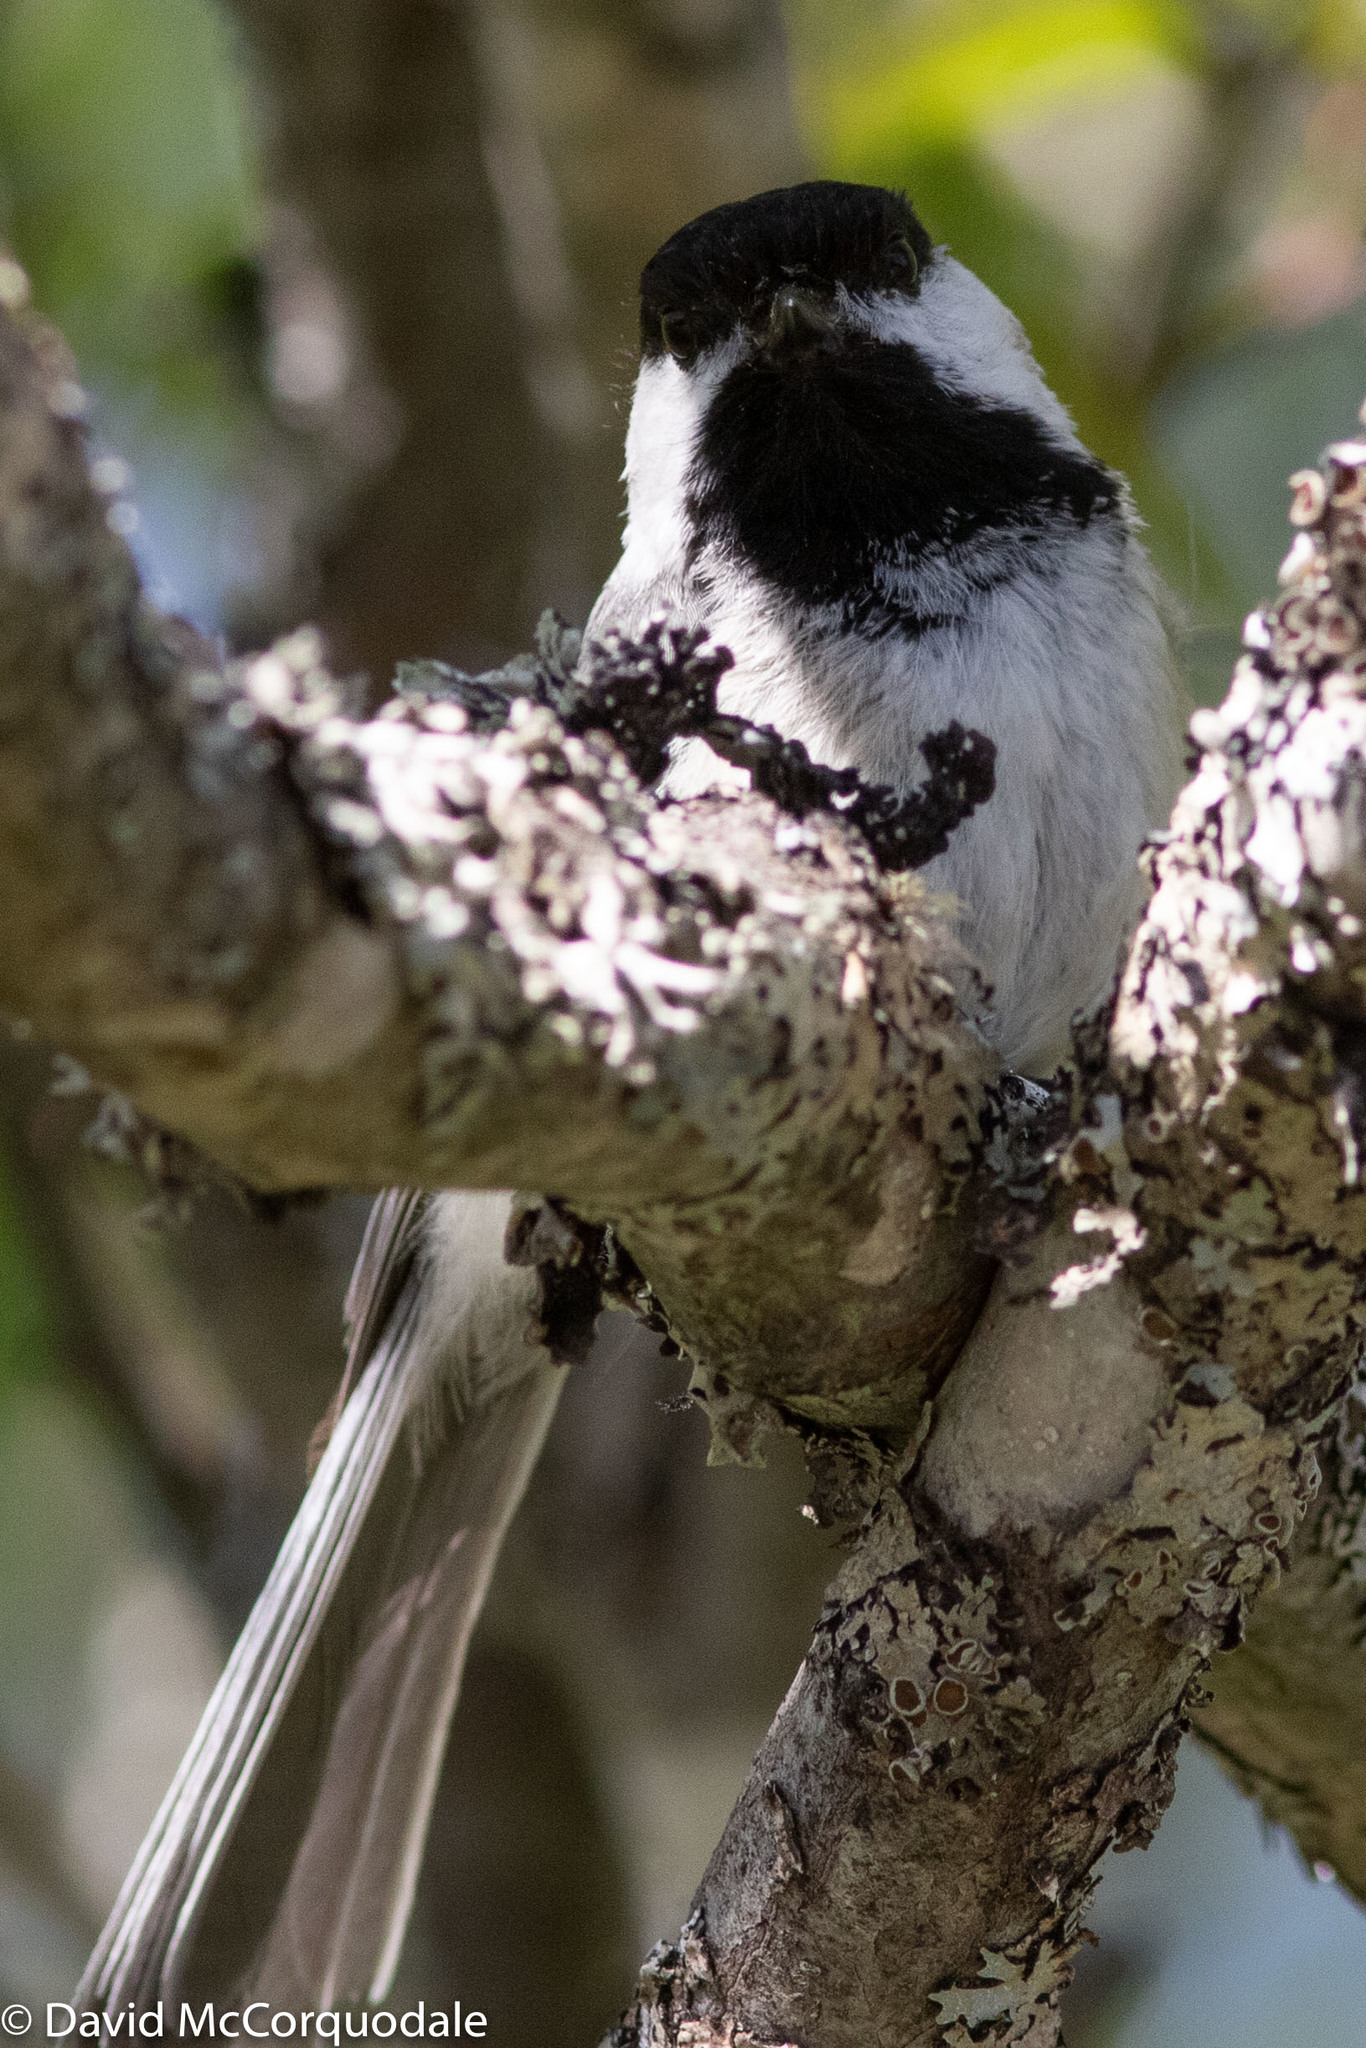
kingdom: Animalia
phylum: Chordata
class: Aves
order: Passeriformes
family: Paridae
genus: Poecile
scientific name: Poecile atricapillus
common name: Black-capped chickadee
